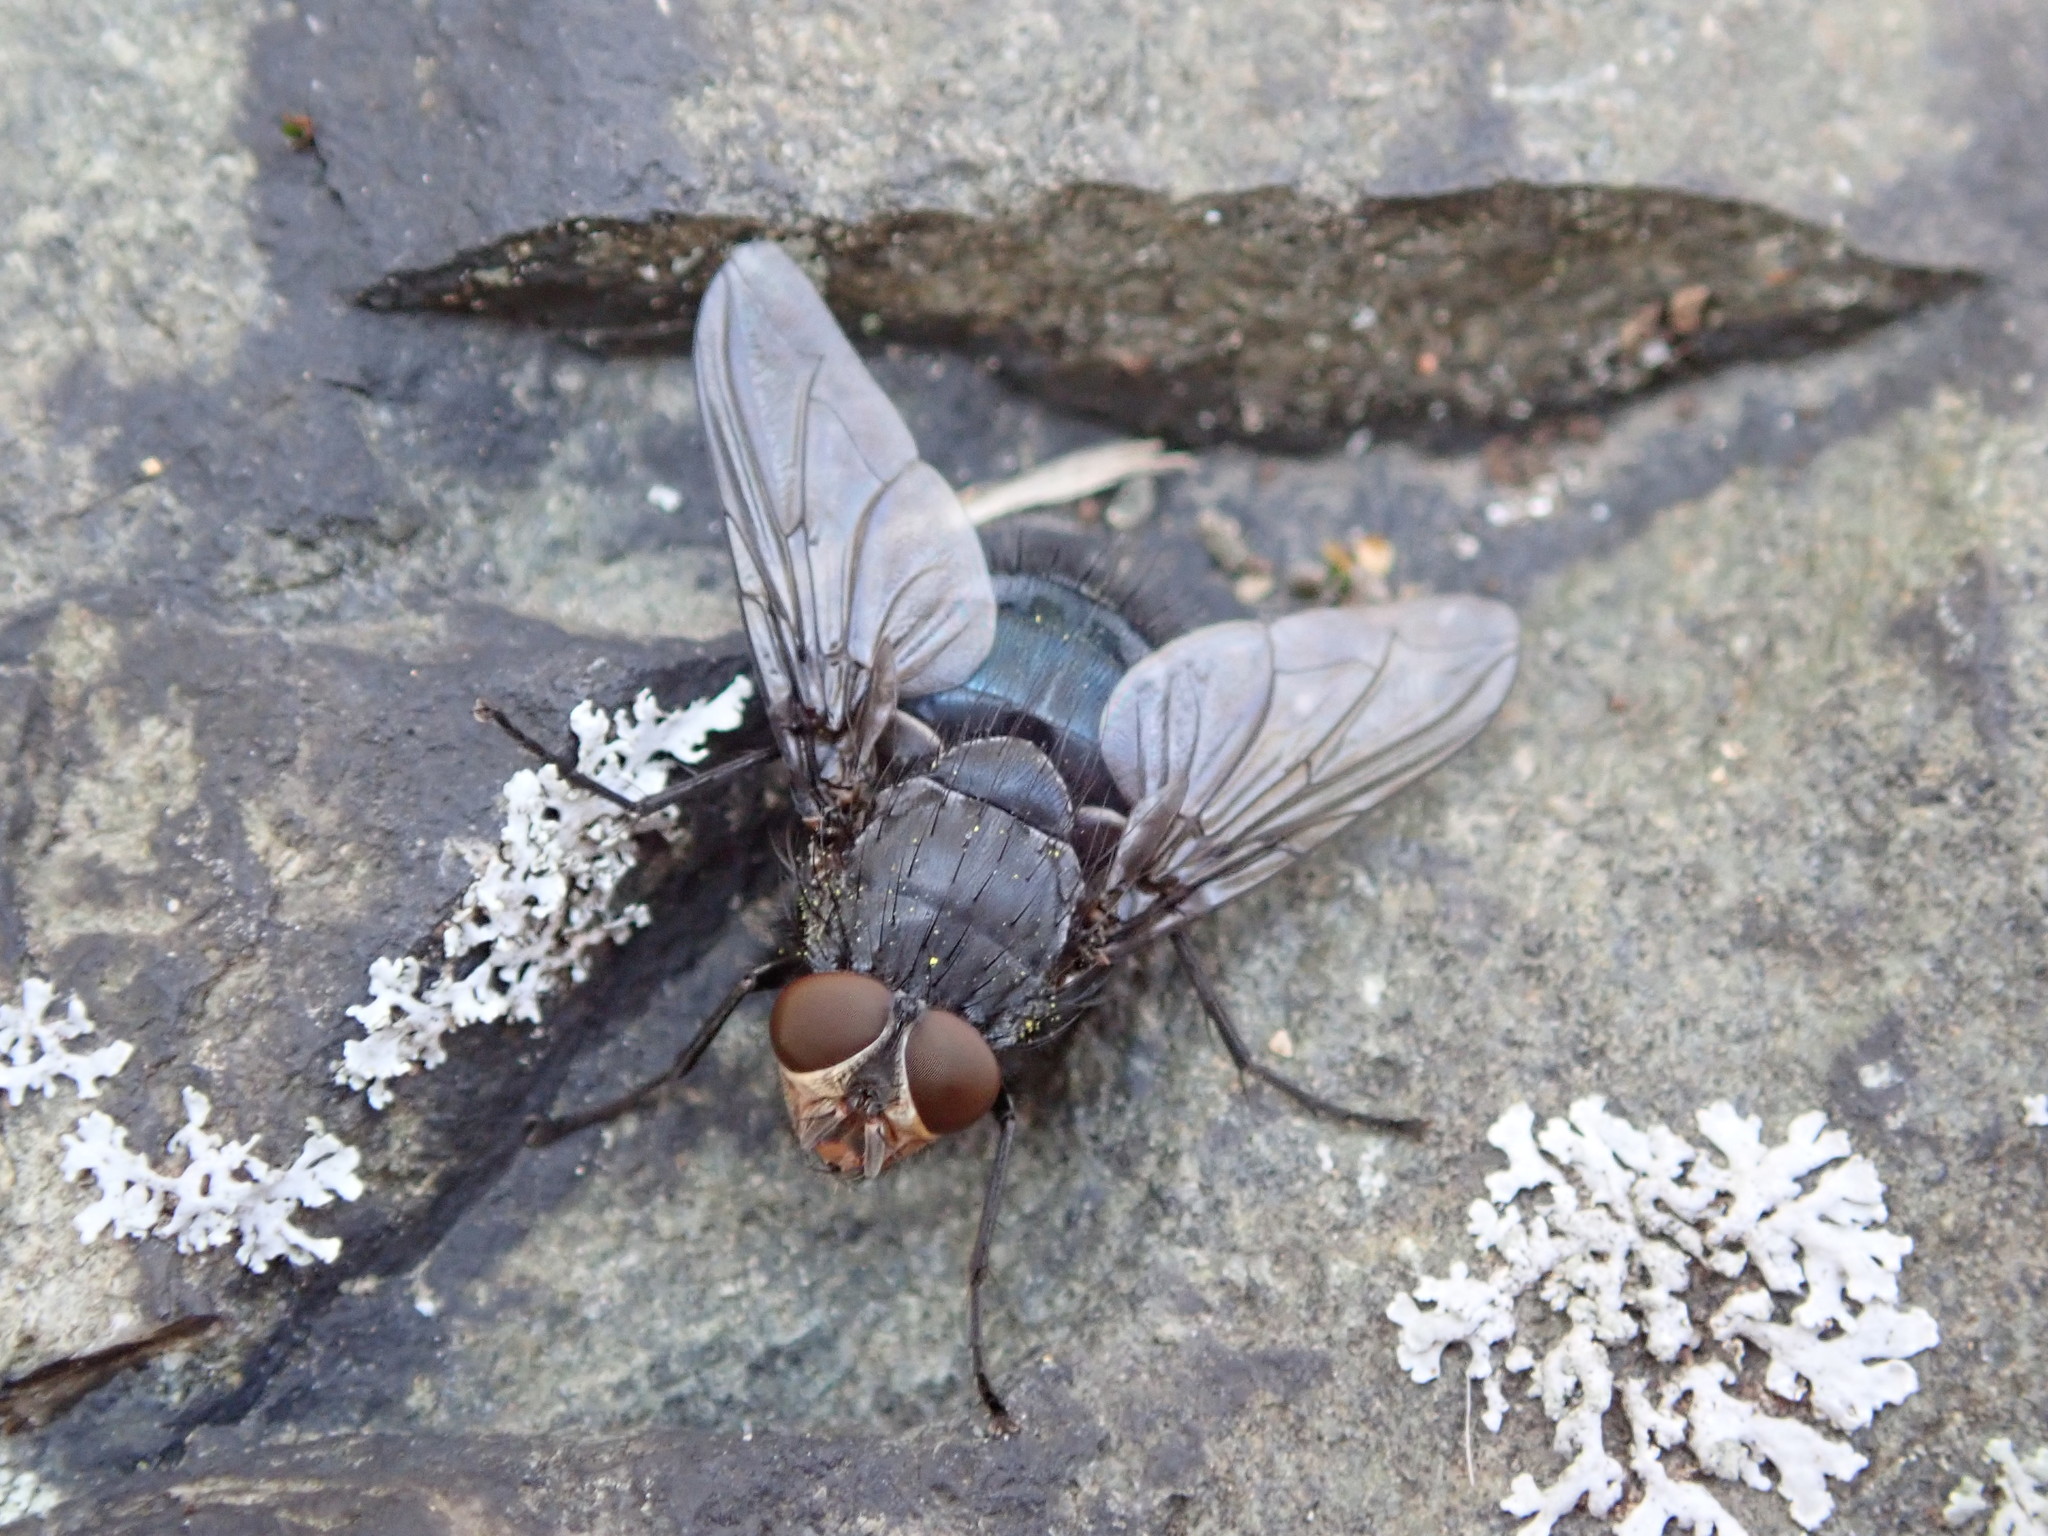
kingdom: Animalia
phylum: Arthropoda
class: Insecta
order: Diptera
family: Calliphoridae
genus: Calliphora
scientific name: Calliphora vicina
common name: Common blow flie
